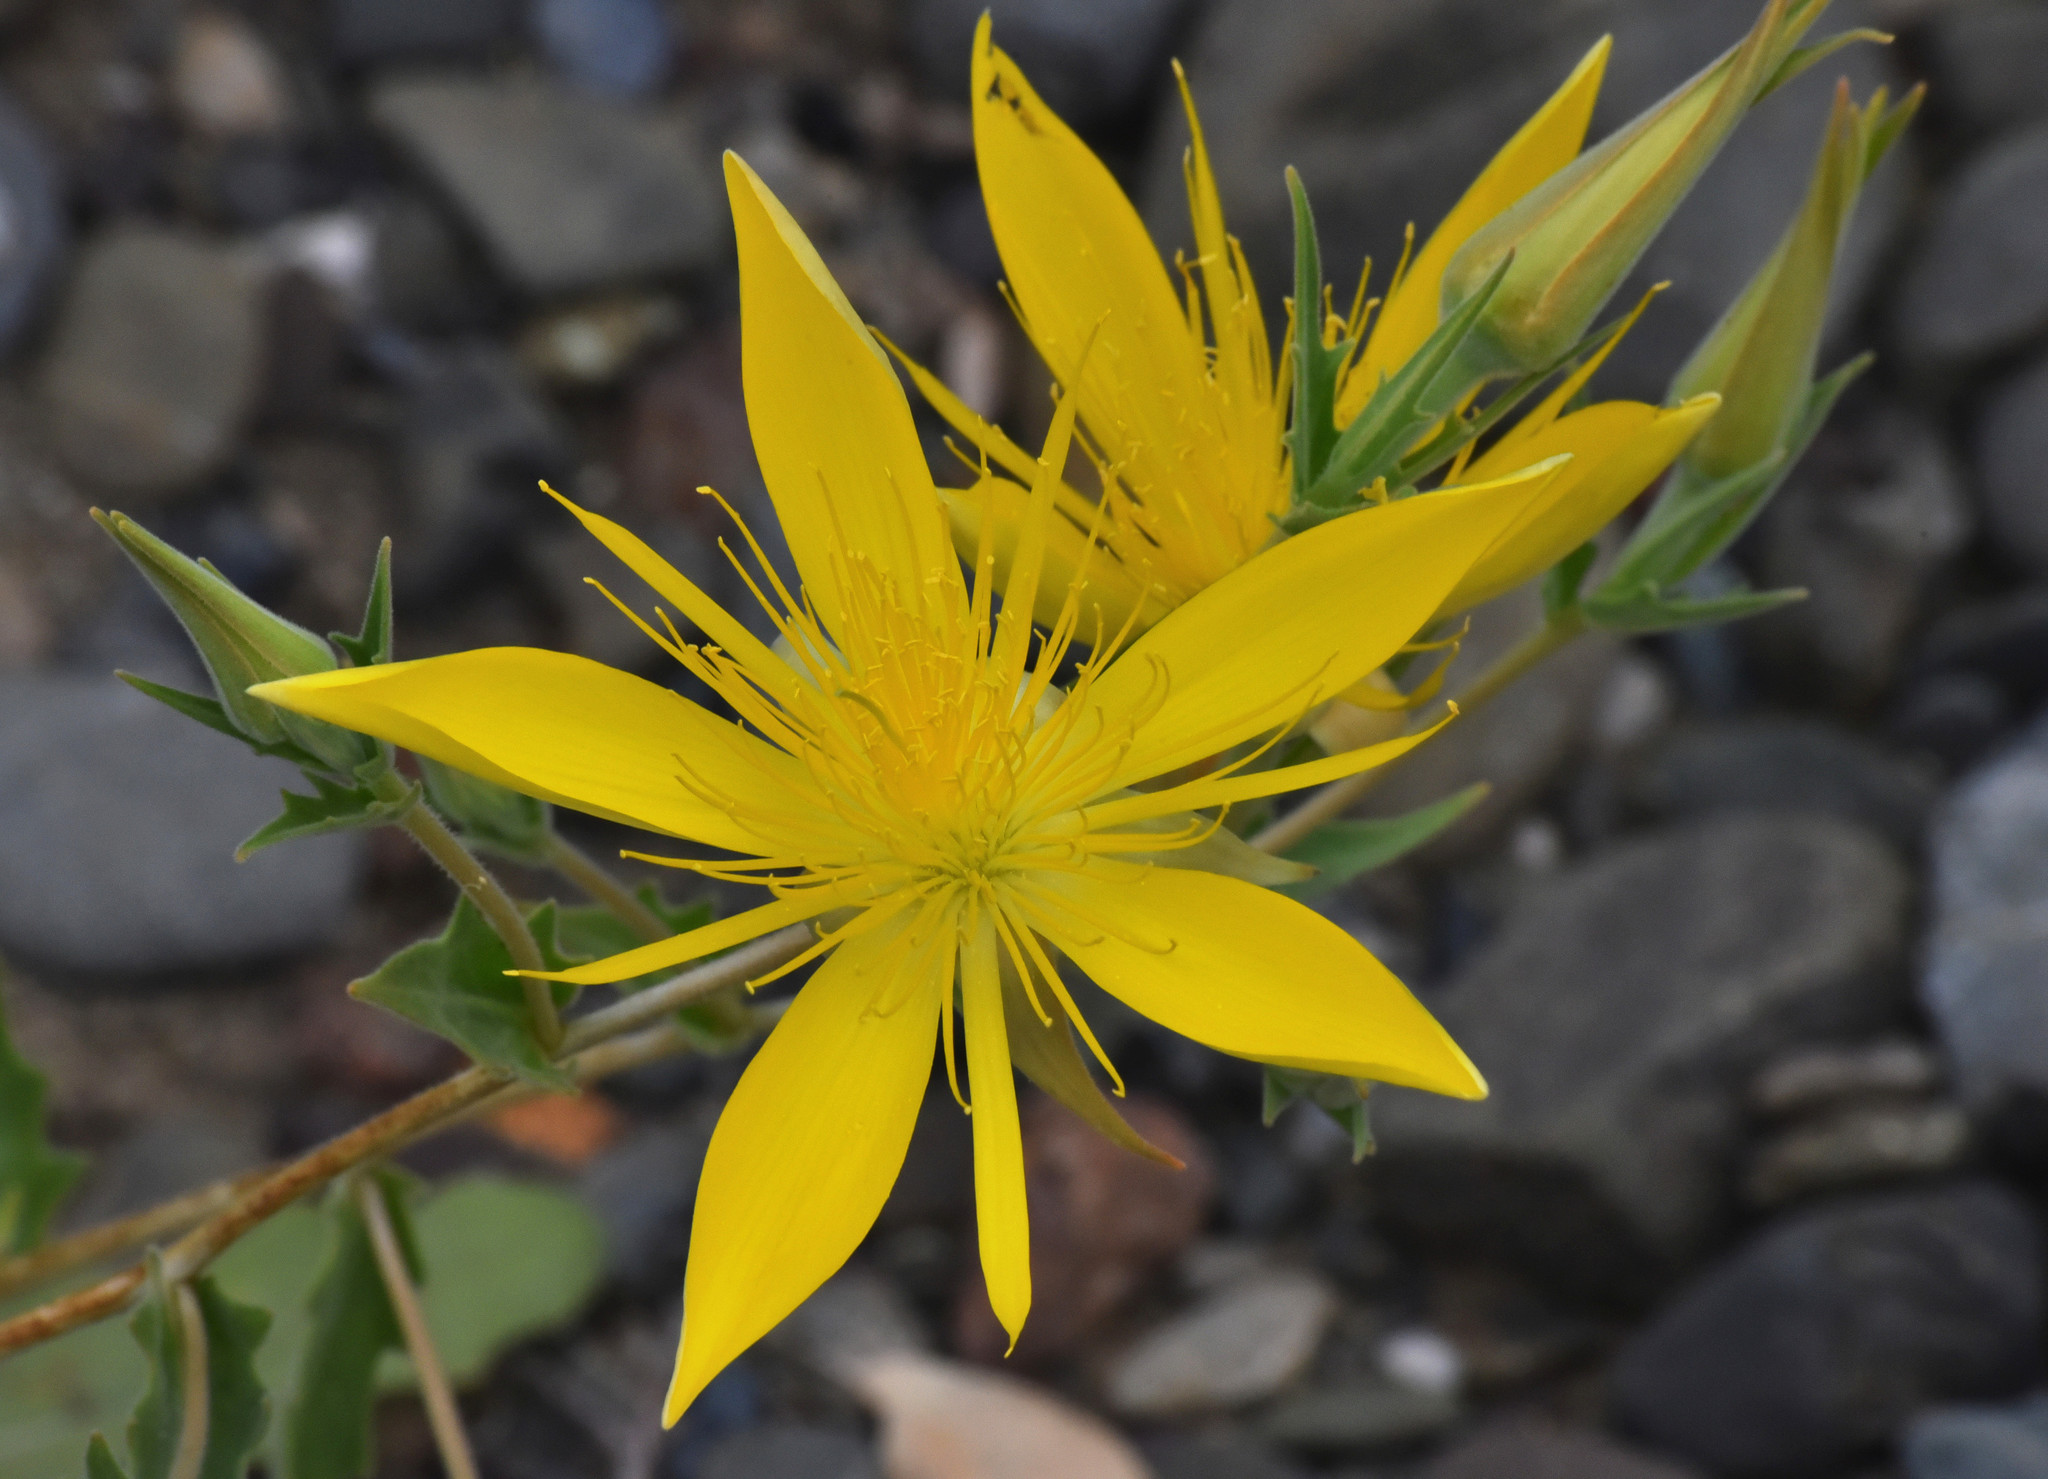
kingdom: Plantae
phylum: Tracheophyta
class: Magnoliopsida
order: Cornales
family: Loasaceae
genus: Mentzelia
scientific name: Mentzelia laevicaulis
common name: Smooth-stem blazingstar
